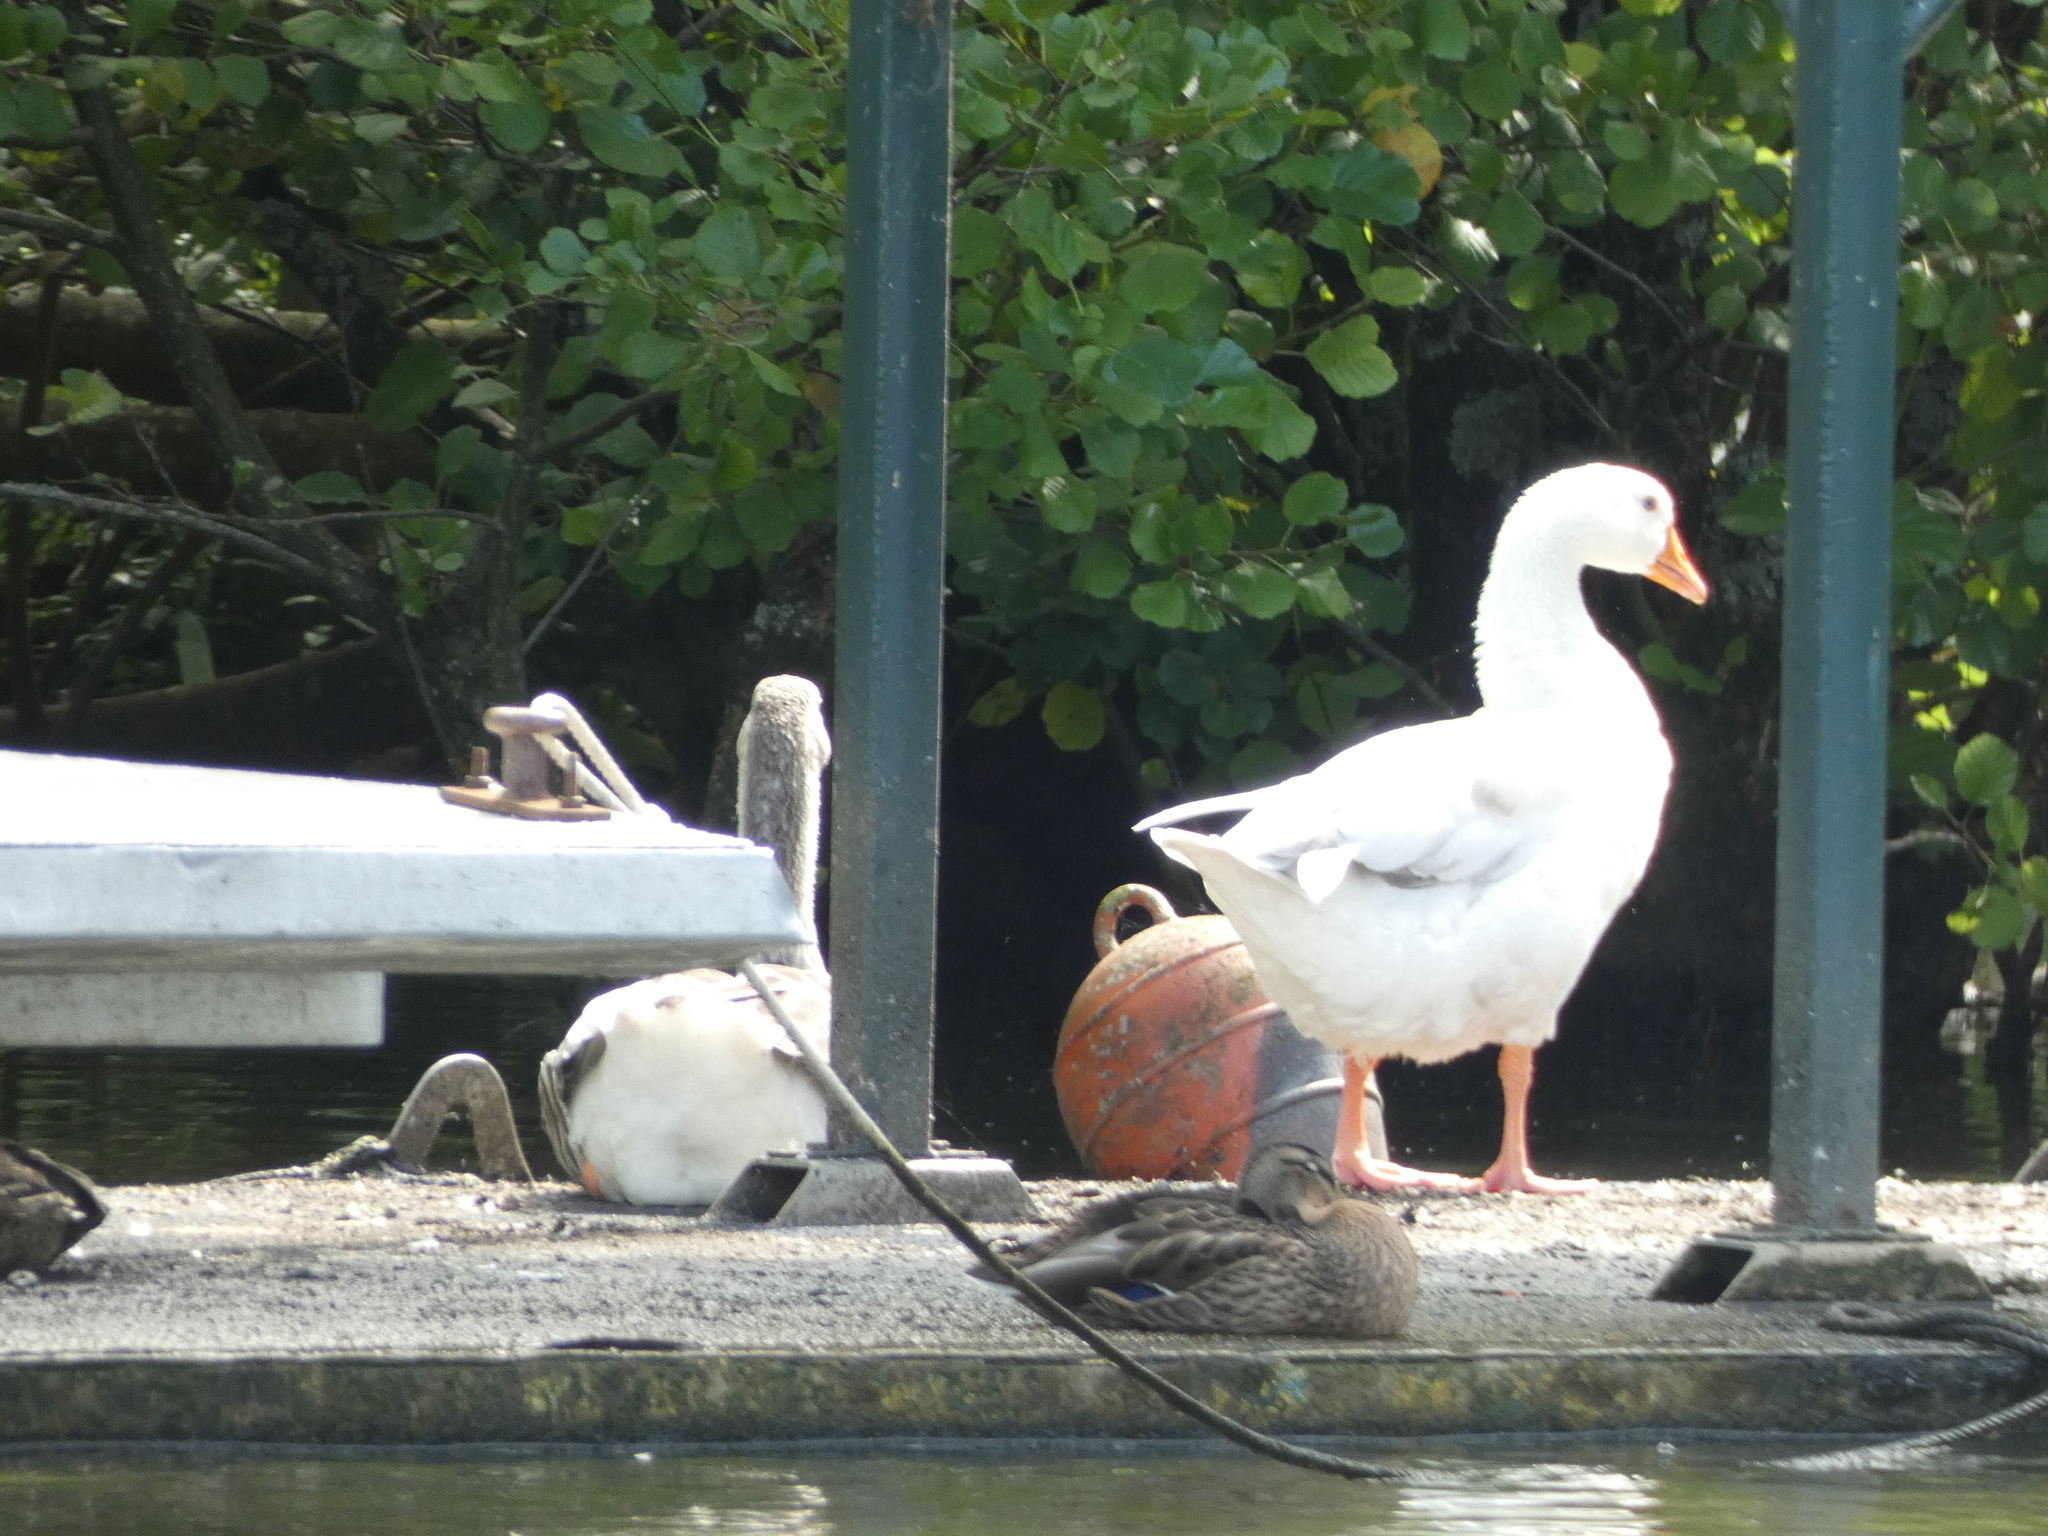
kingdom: Animalia
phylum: Chordata
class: Aves
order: Anseriformes
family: Anatidae
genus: Anser
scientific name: Anser anser
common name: Greylag goose
